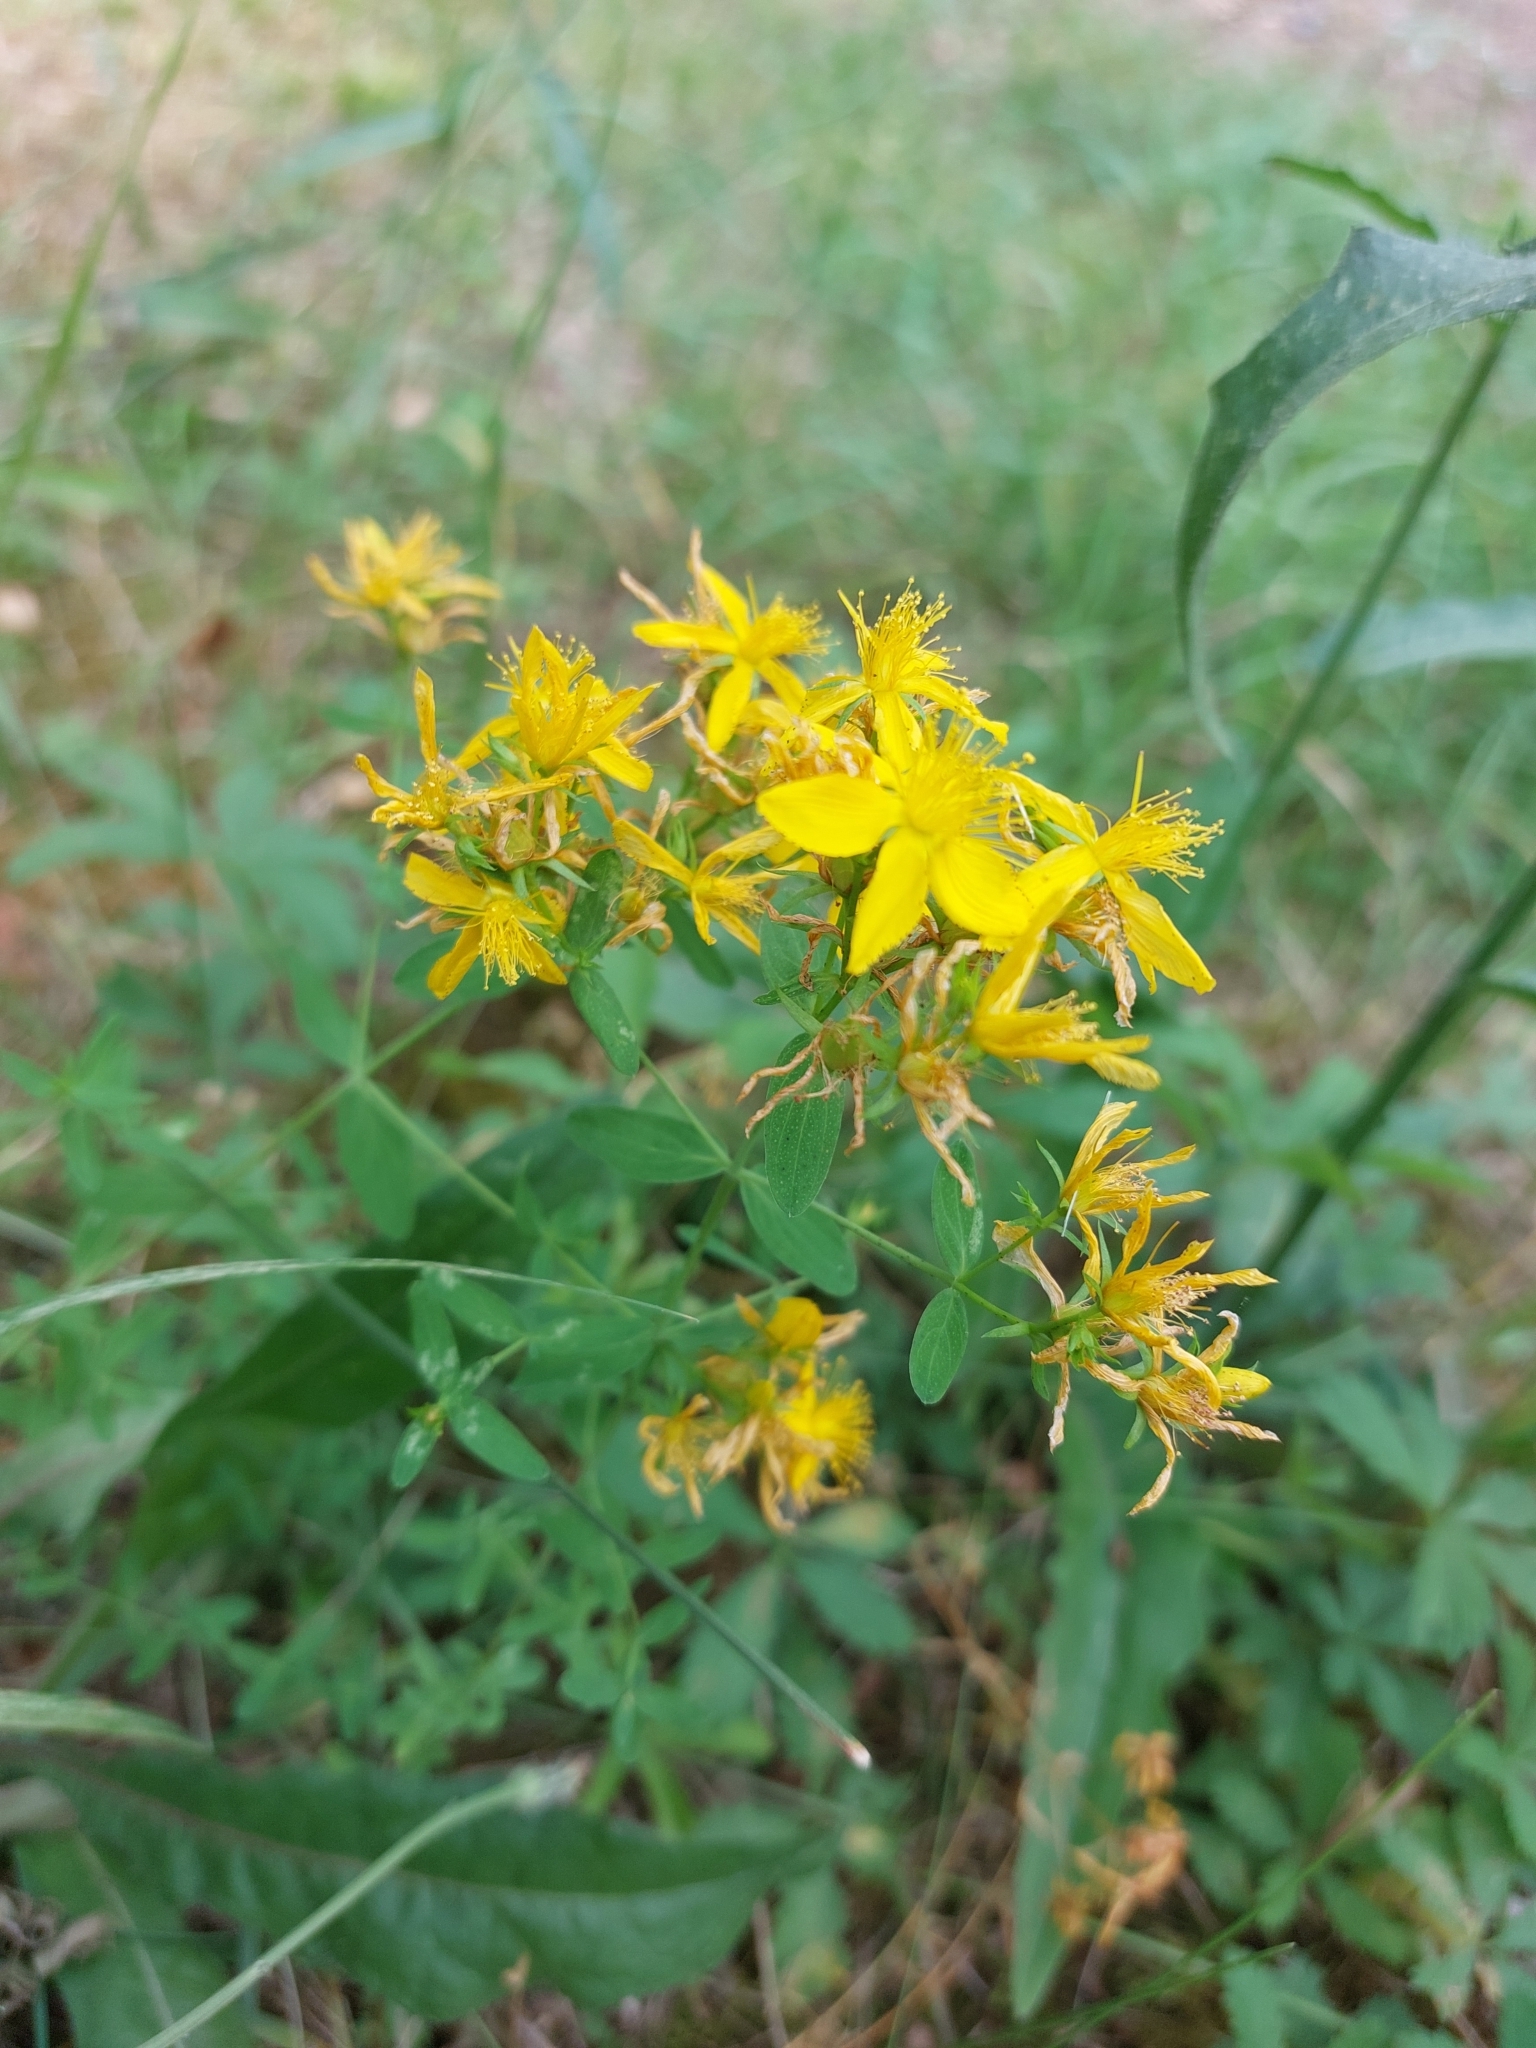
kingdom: Plantae
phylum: Tracheophyta
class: Magnoliopsida
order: Malpighiales
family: Hypericaceae
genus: Hypericum
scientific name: Hypericum perforatum
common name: Common st. johnswort
